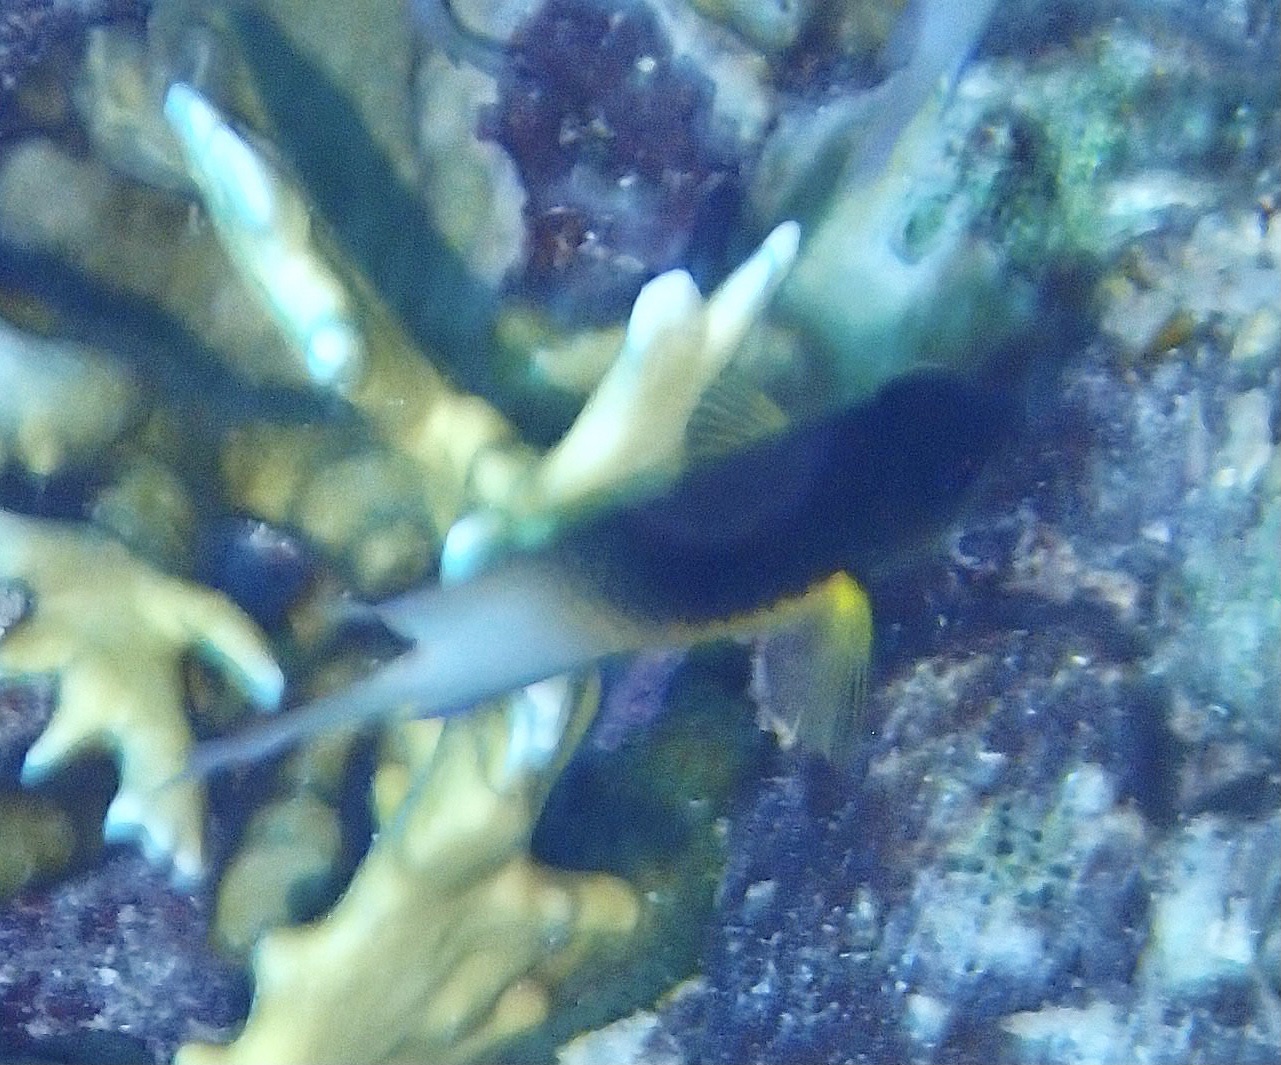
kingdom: Animalia
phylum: Chordata
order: Perciformes
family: Pomacentridae
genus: Stegastes
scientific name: Stegastes partitus
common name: Bicolor damselfish
